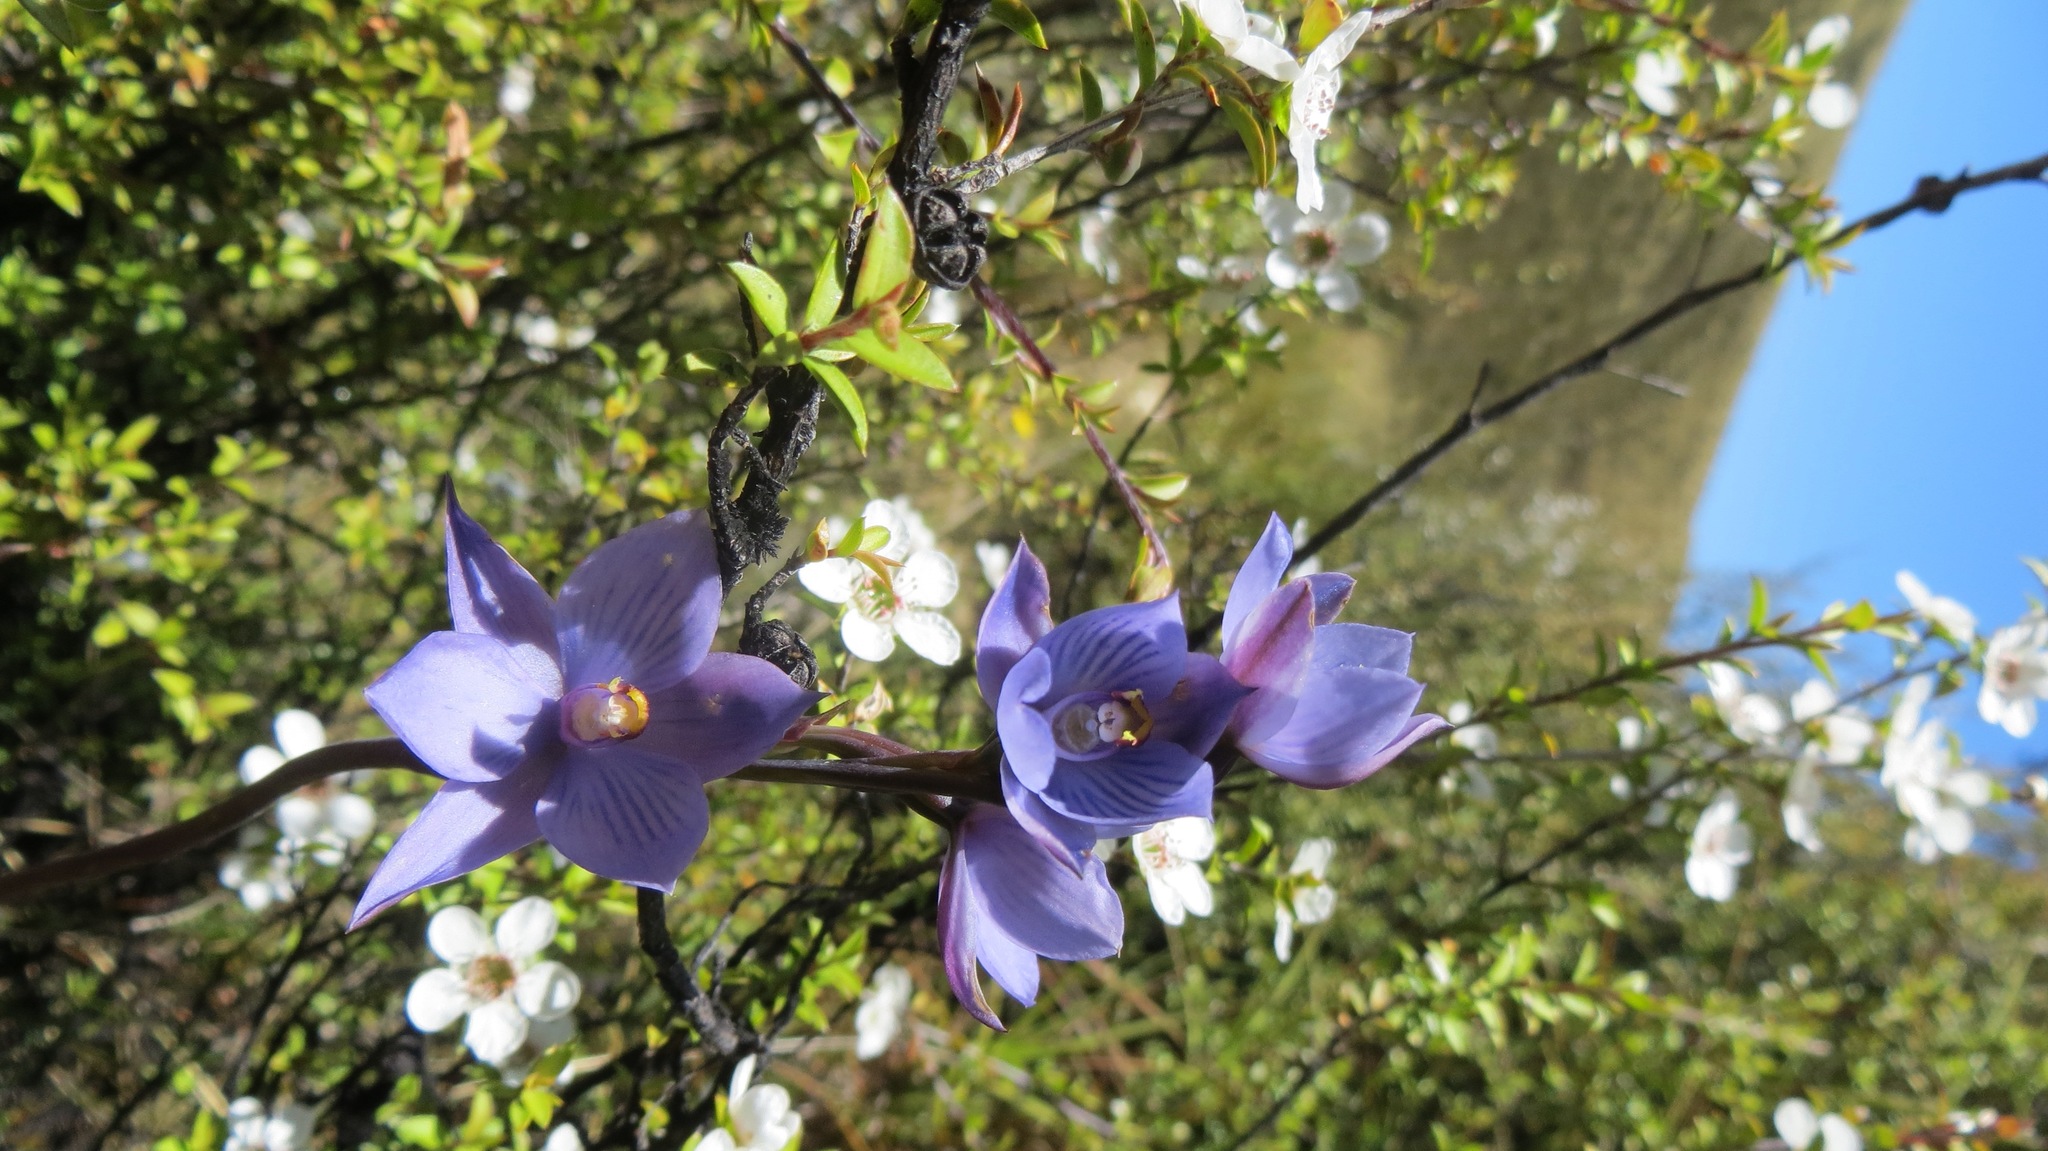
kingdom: Plantae
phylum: Tracheophyta
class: Liliopsida
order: Asparagales
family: Orchidaceae
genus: Thelymitra
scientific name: Thelymitra pulchella
